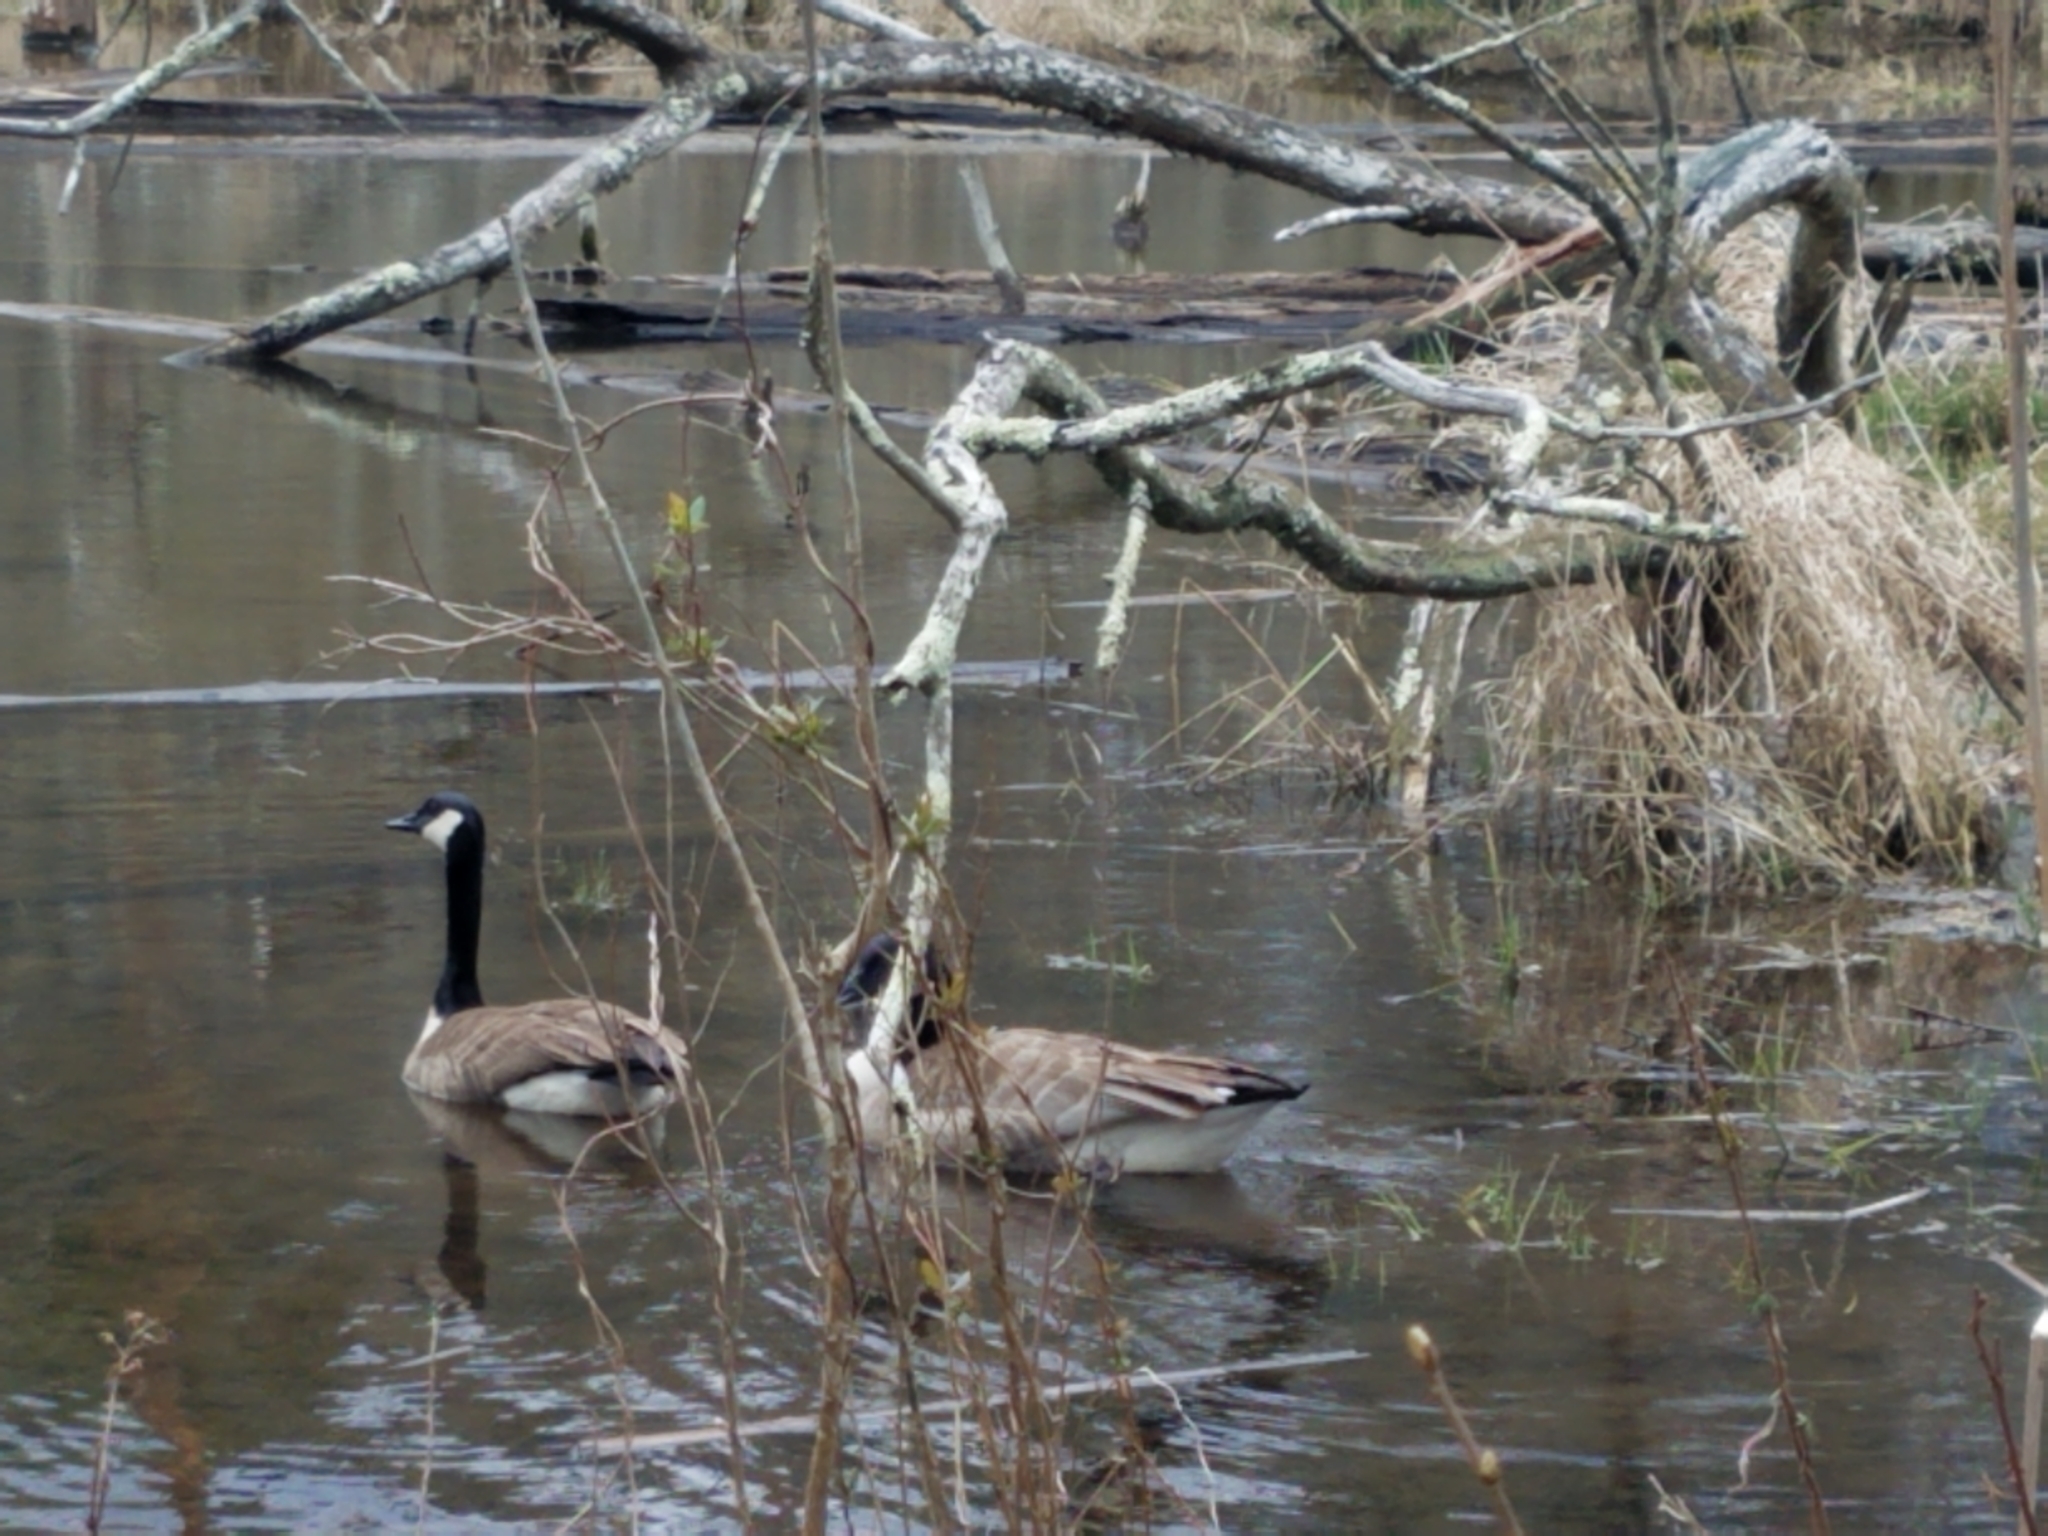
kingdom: Animalia
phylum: Chordata
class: Aves
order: Anseriformes
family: Anatidae
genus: Branta
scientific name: Branta canadensis
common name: Canada goose
